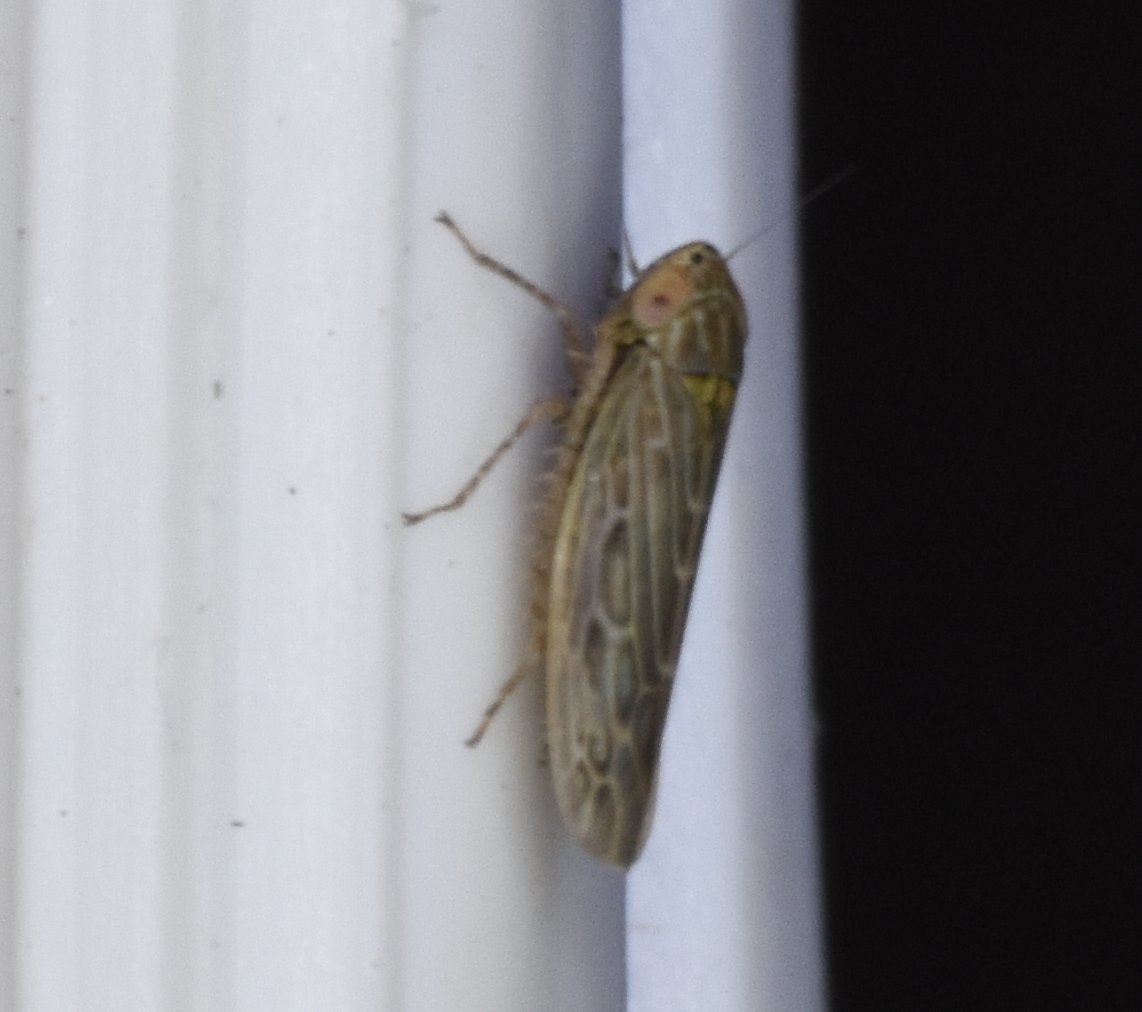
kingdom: Animalia
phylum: Arthropoda
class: Insecta
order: Hemiptera
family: Cicadellidae
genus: Graminella
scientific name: Graminella sonora
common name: Lesser lawn leafhopper
